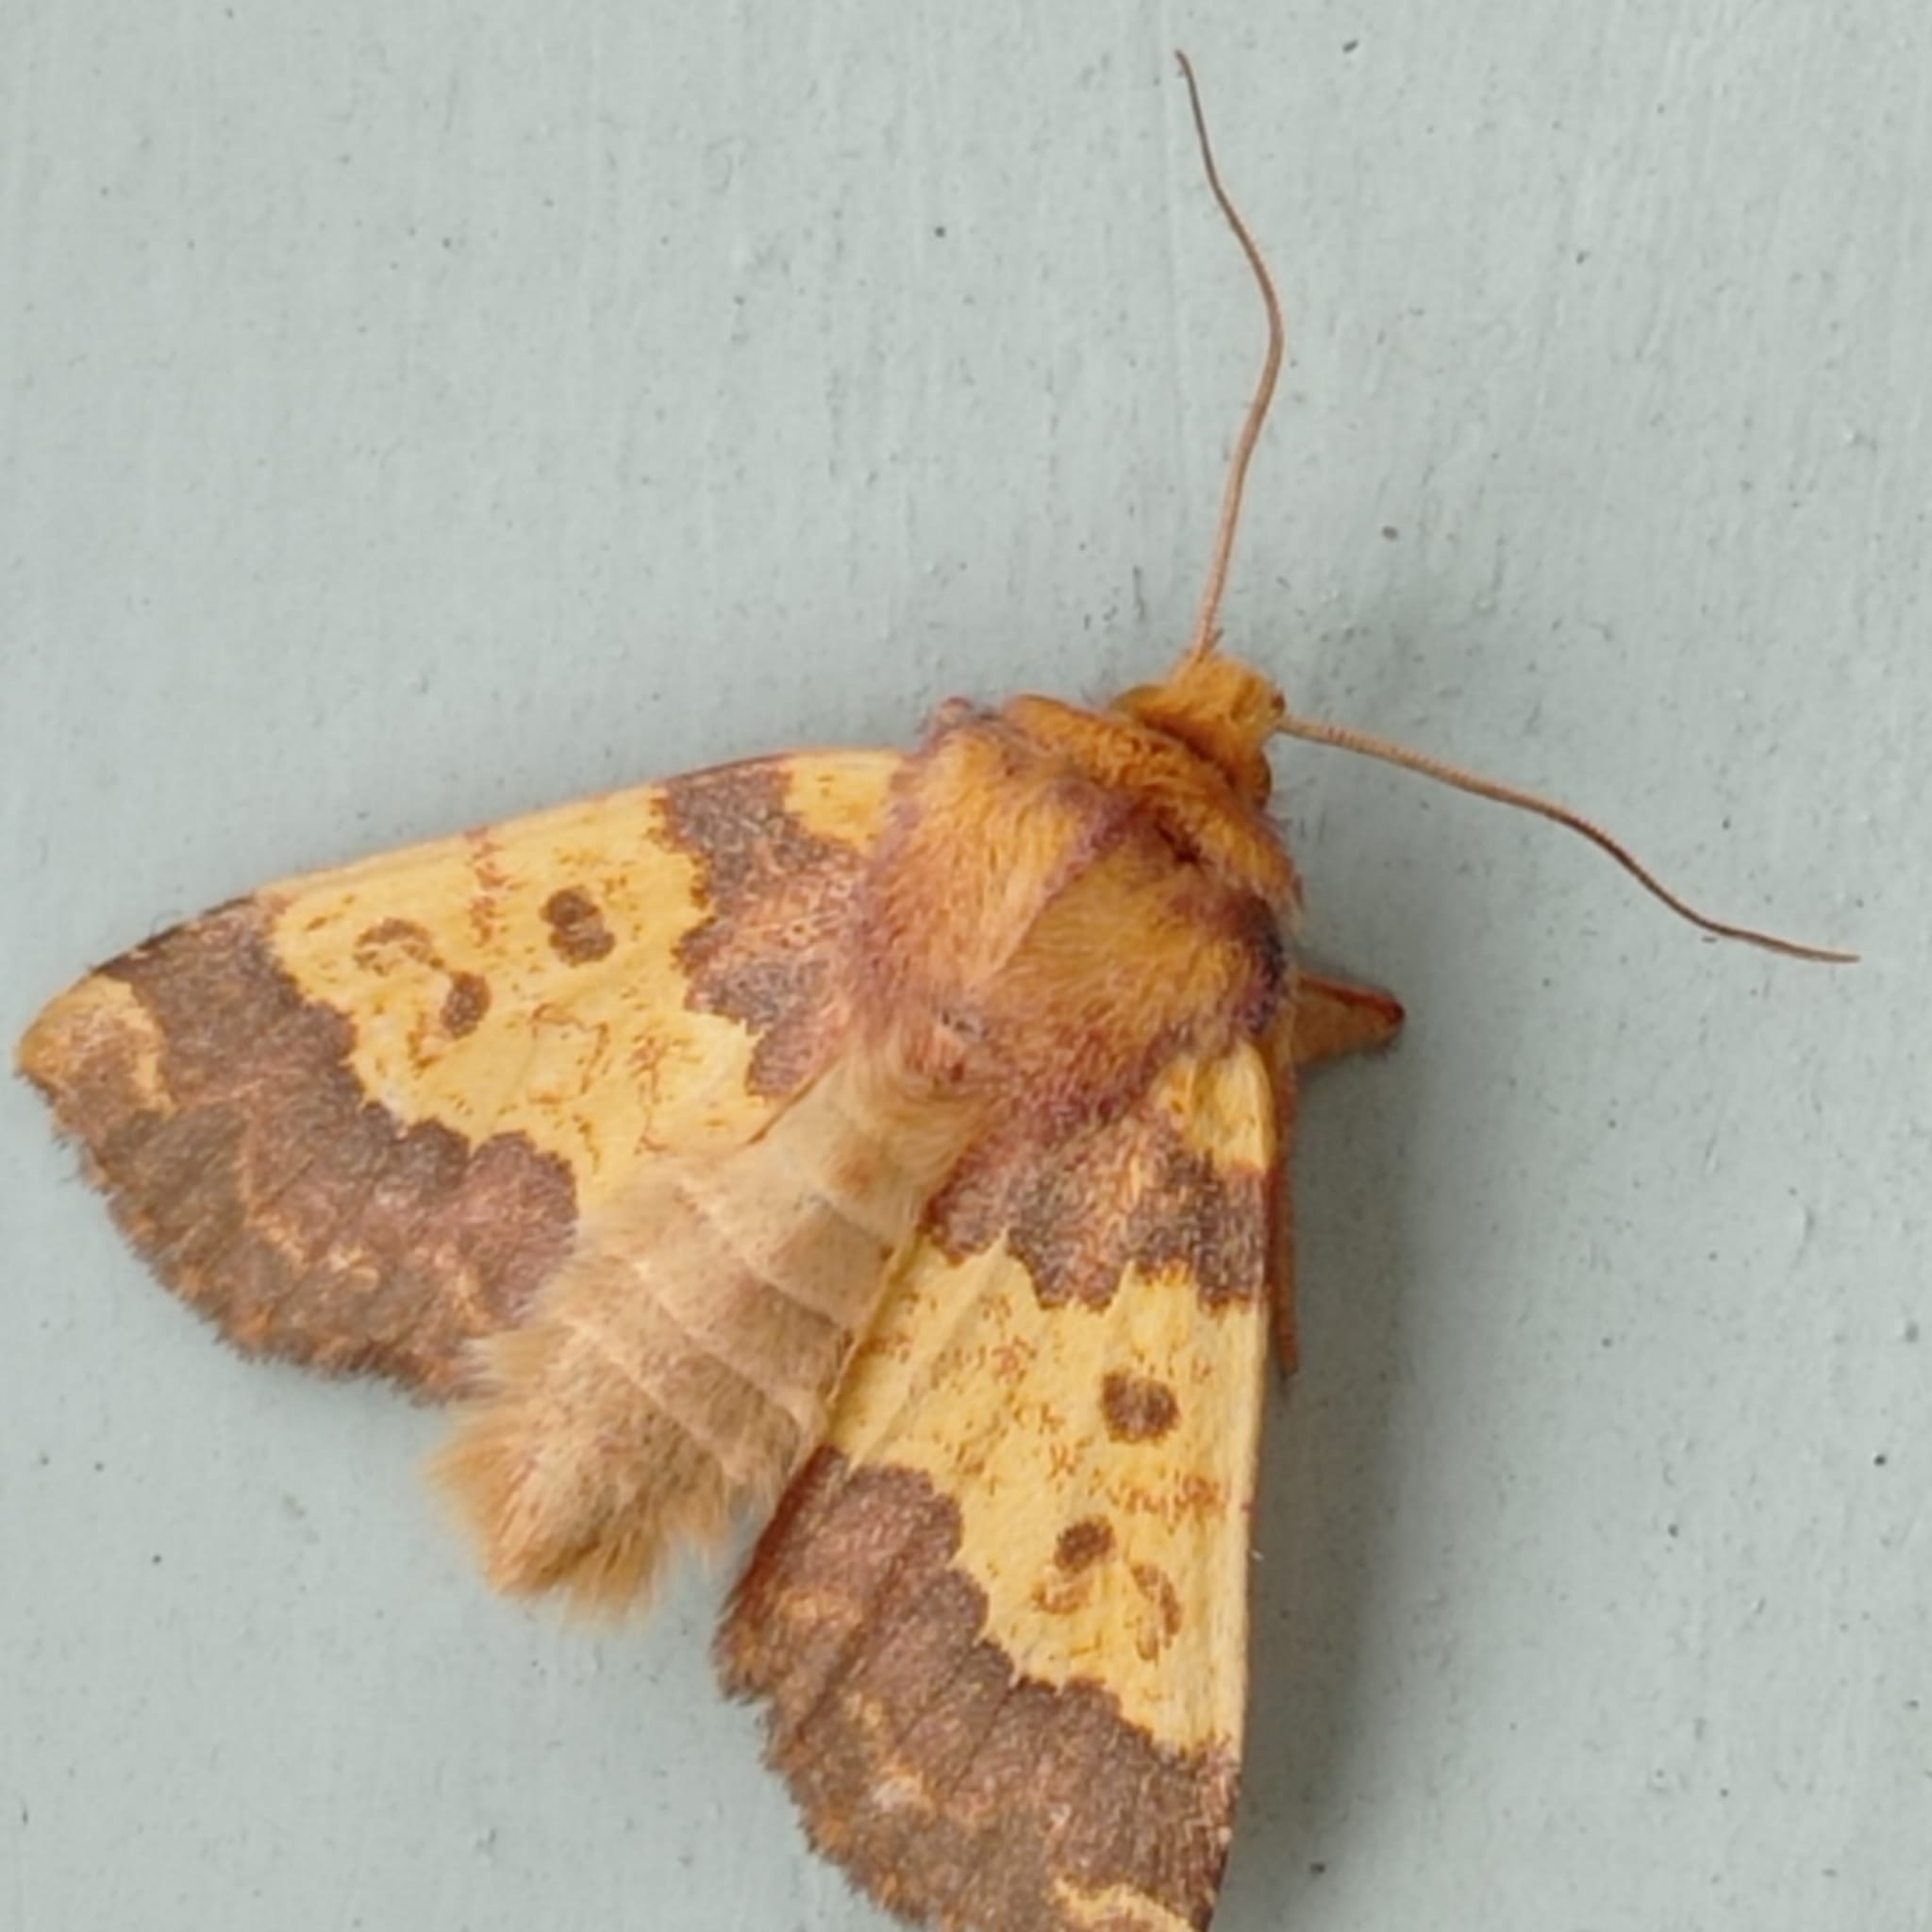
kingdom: Animalia
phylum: Arthropoda
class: Insecta
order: Lepidoptera
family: Noctuidae
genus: Tiliacea
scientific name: Tiliacea aurago
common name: Barred sallow
